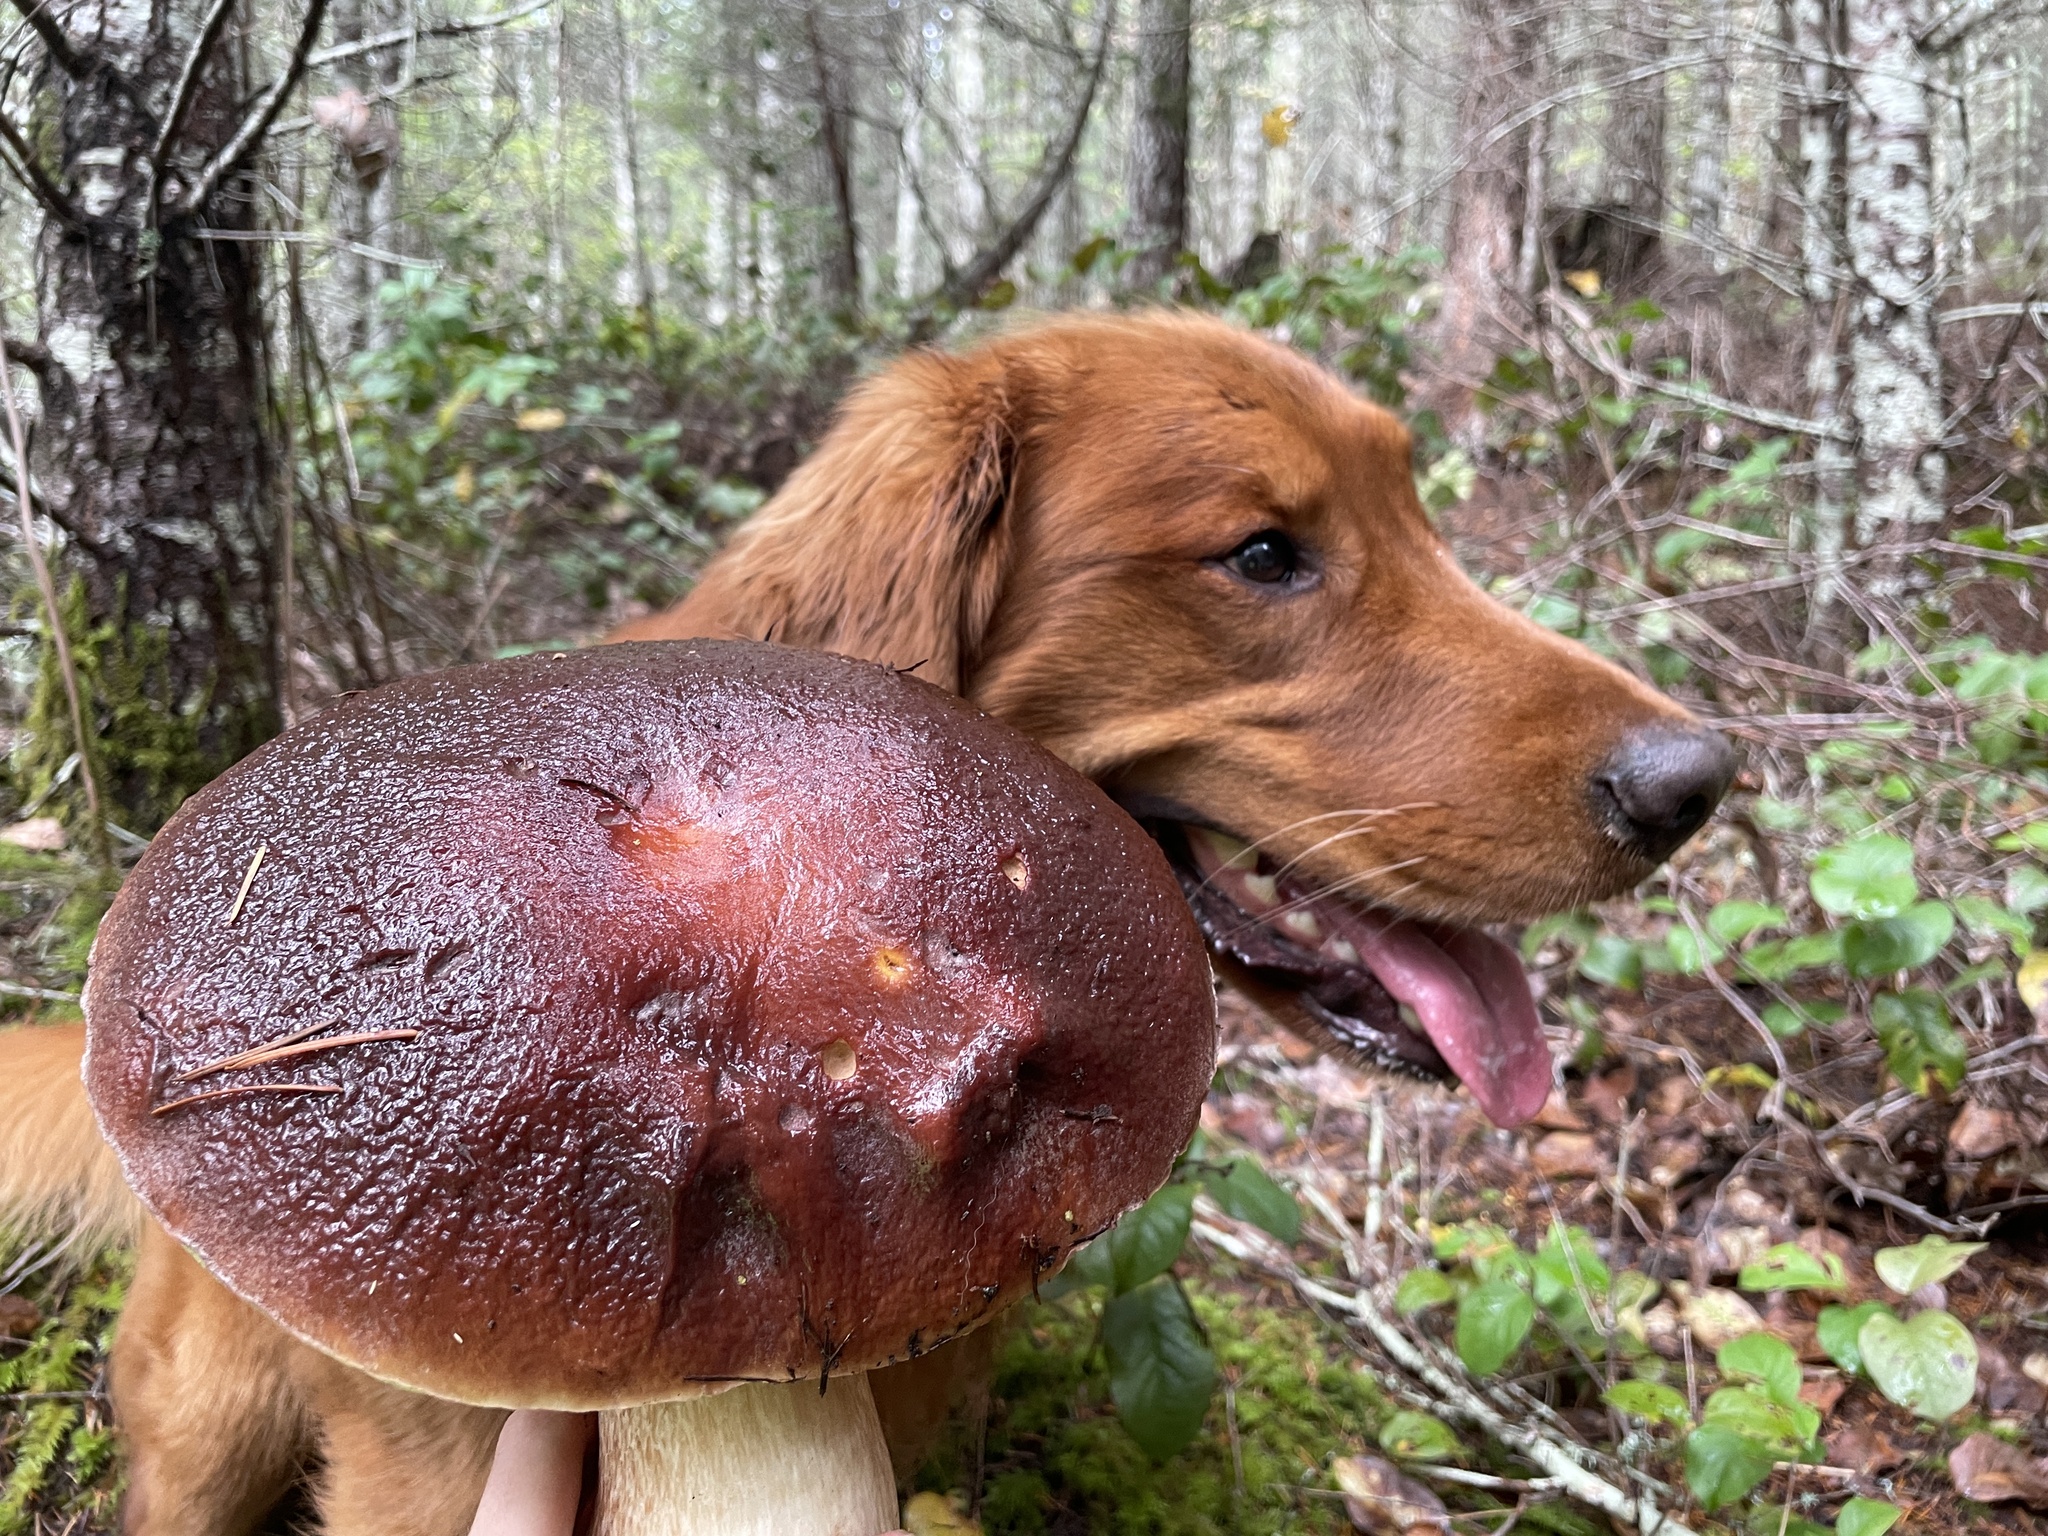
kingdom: Fungi
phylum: Basidiomycota
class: Agaricomycetes
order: Boletales
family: Boletaceae
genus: Boletus
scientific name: Boletus regineus
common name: Queen bolete
